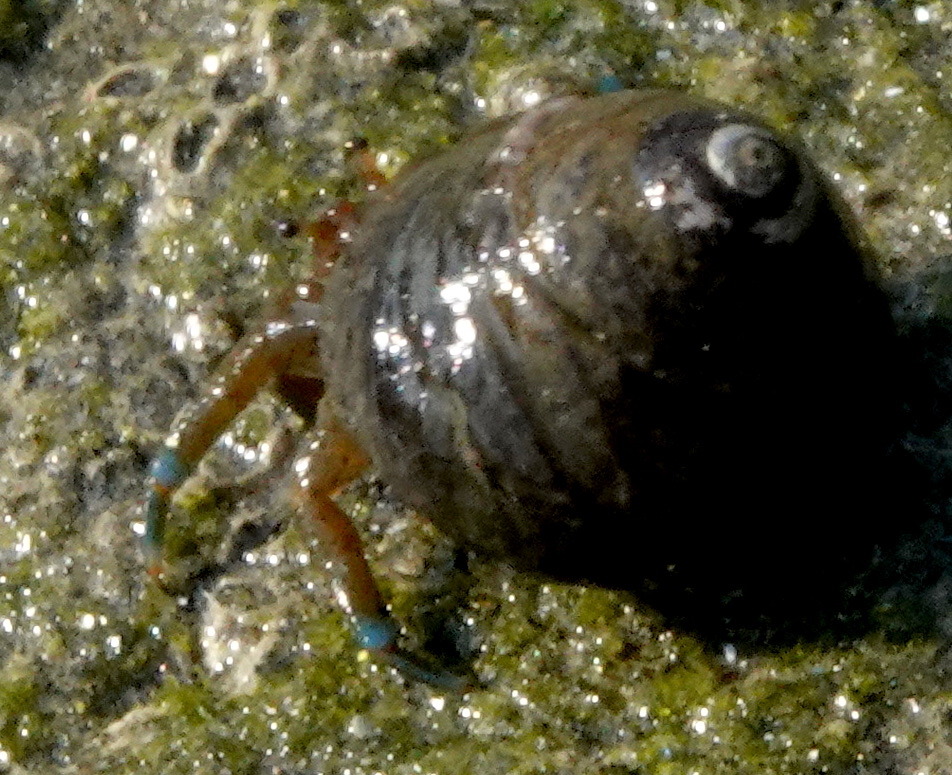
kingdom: Animalia
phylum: Arthropoda
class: Malacostraca
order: Decapoda
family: Paguridae
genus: Pagurus
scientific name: Pagurus samuelis
